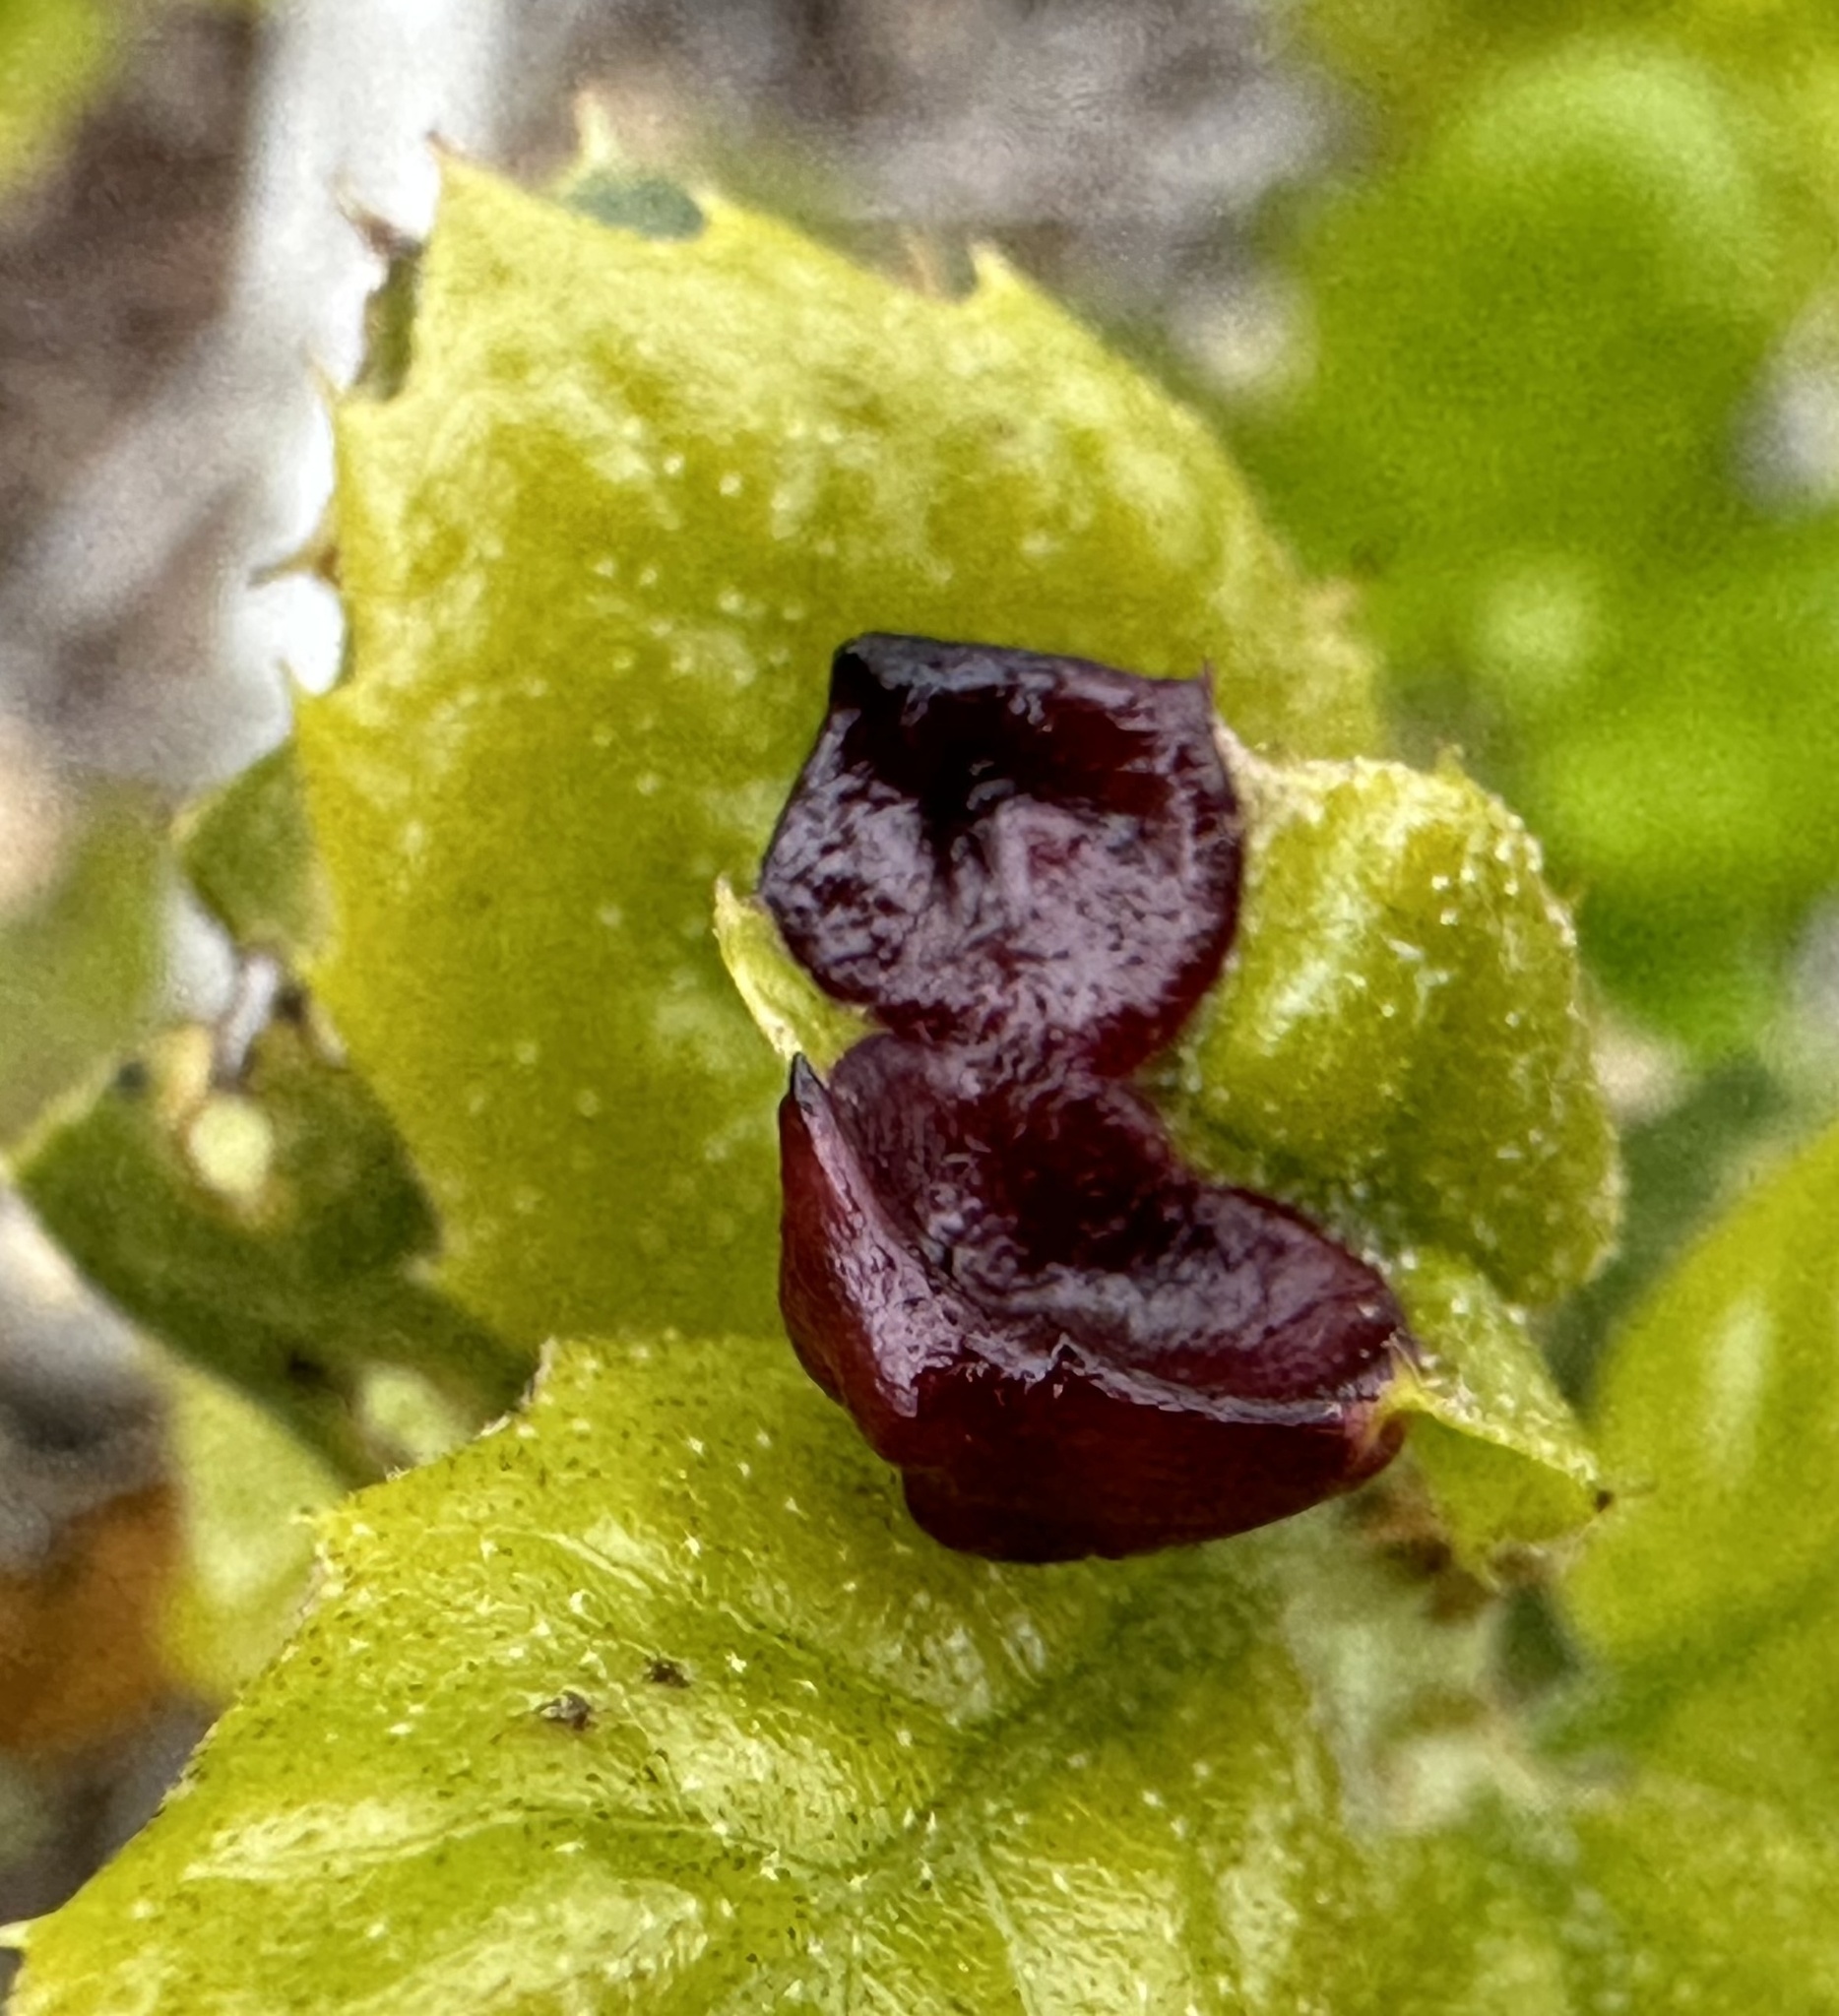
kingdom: Animalia
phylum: Arthropoda
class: Insecta
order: Hymenoptera
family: Cynipidae
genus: Dryocosmus
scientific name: Dryocosmus
